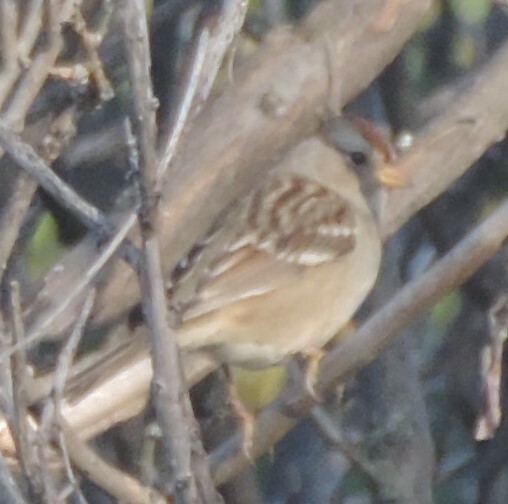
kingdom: Animalia
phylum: Chordata
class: Aves
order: Passeriformes
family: Passerellidae
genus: Zonotrichia
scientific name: Zonotrichia leucophrys
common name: White-crowned sparrow
